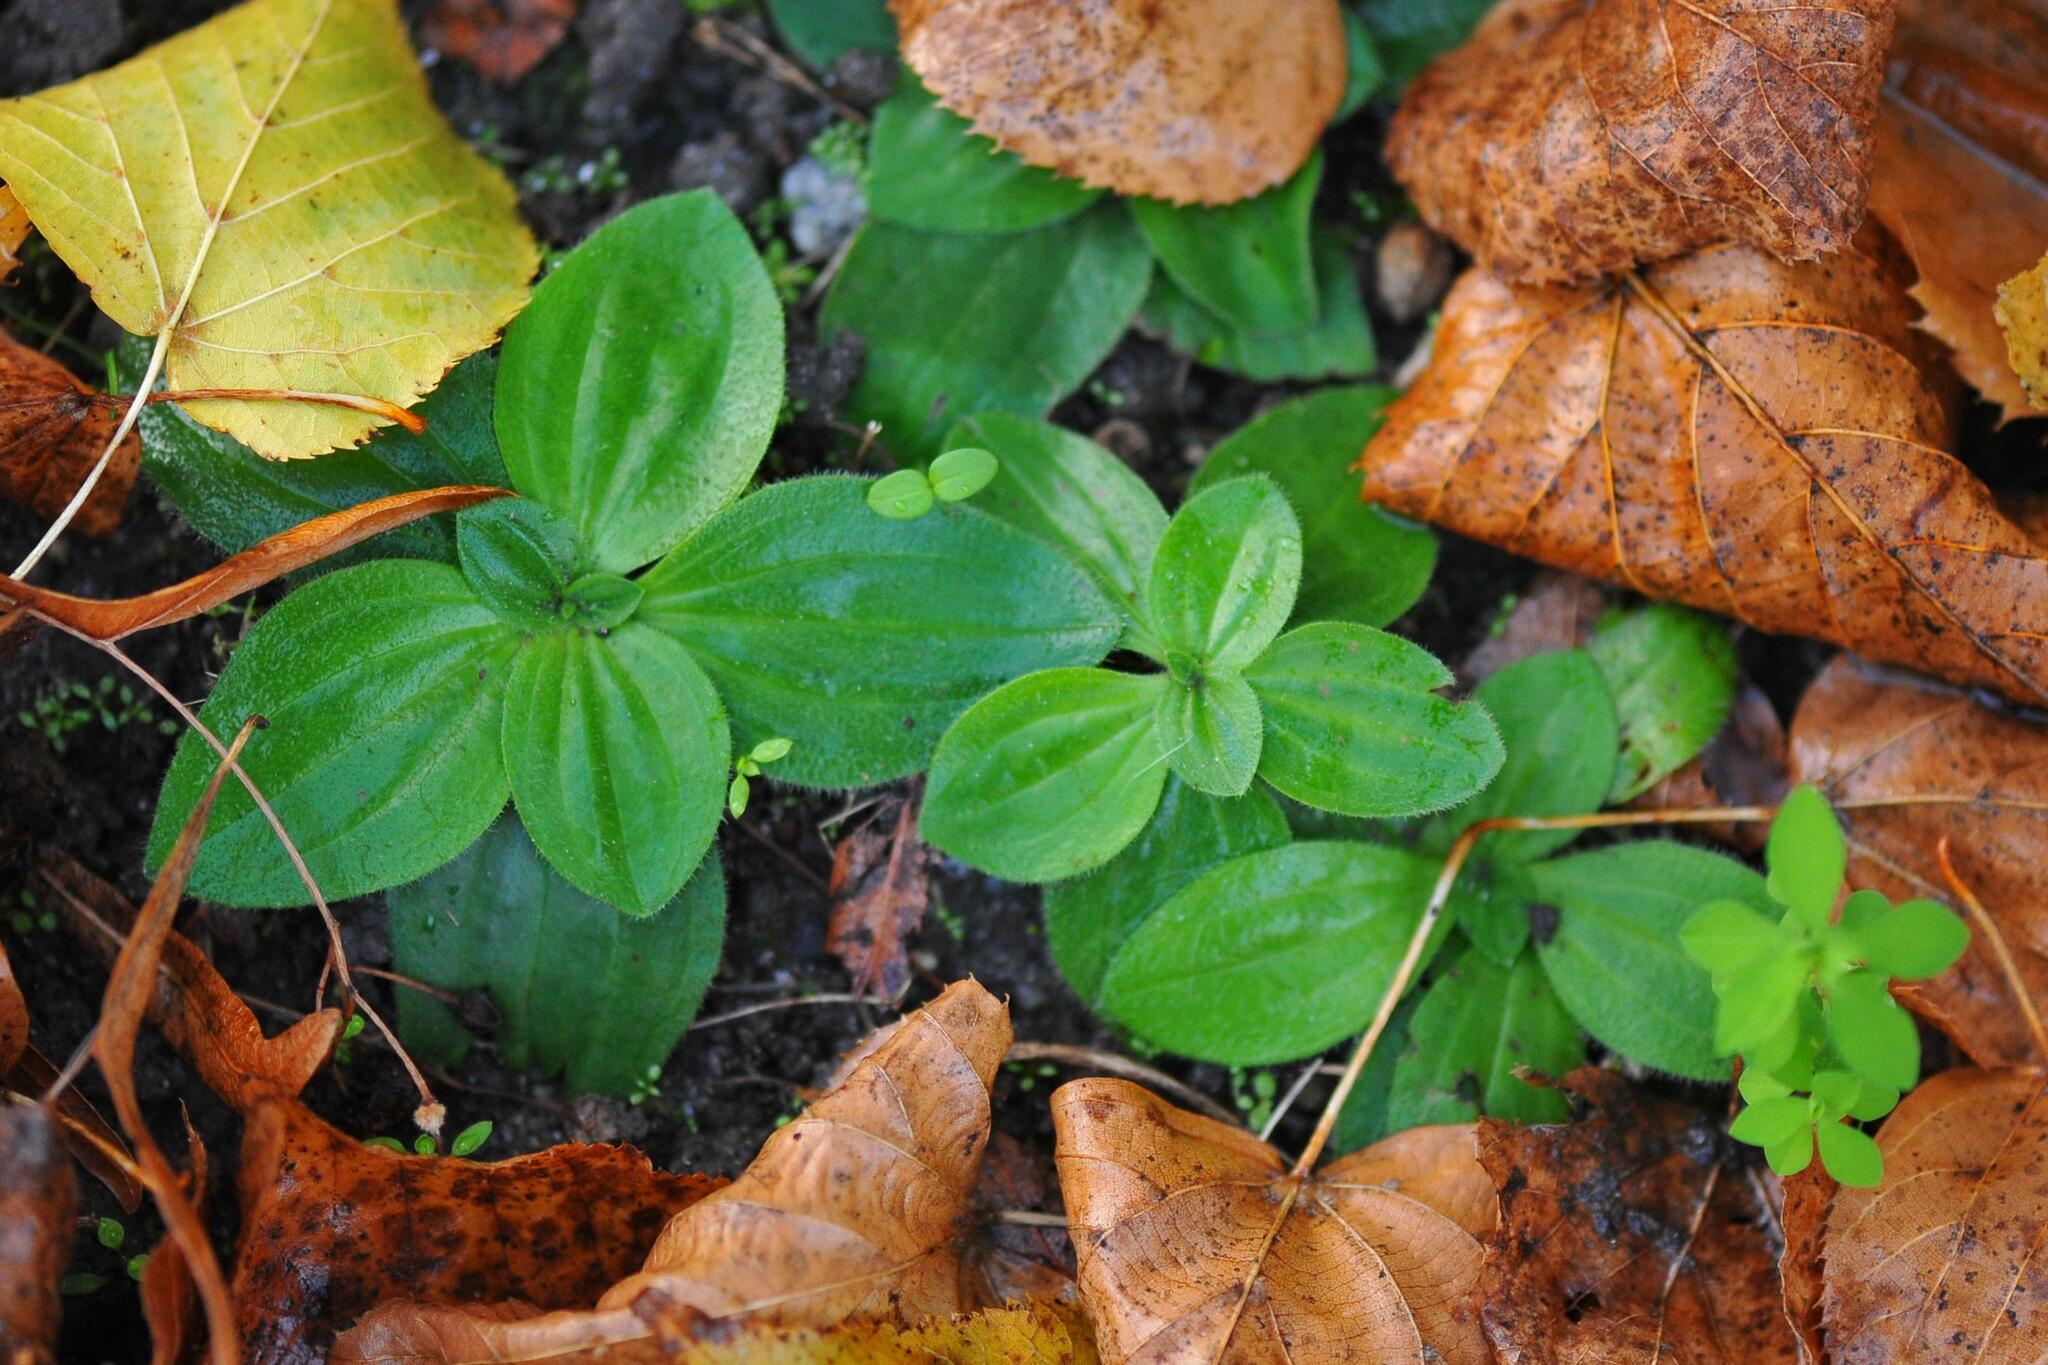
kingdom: Plantae
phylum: Tracheophyta
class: Magnoliopsida
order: Lamiales
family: Plantaginaceae
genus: Plantago
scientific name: Plantago media
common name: Hoary plantain
